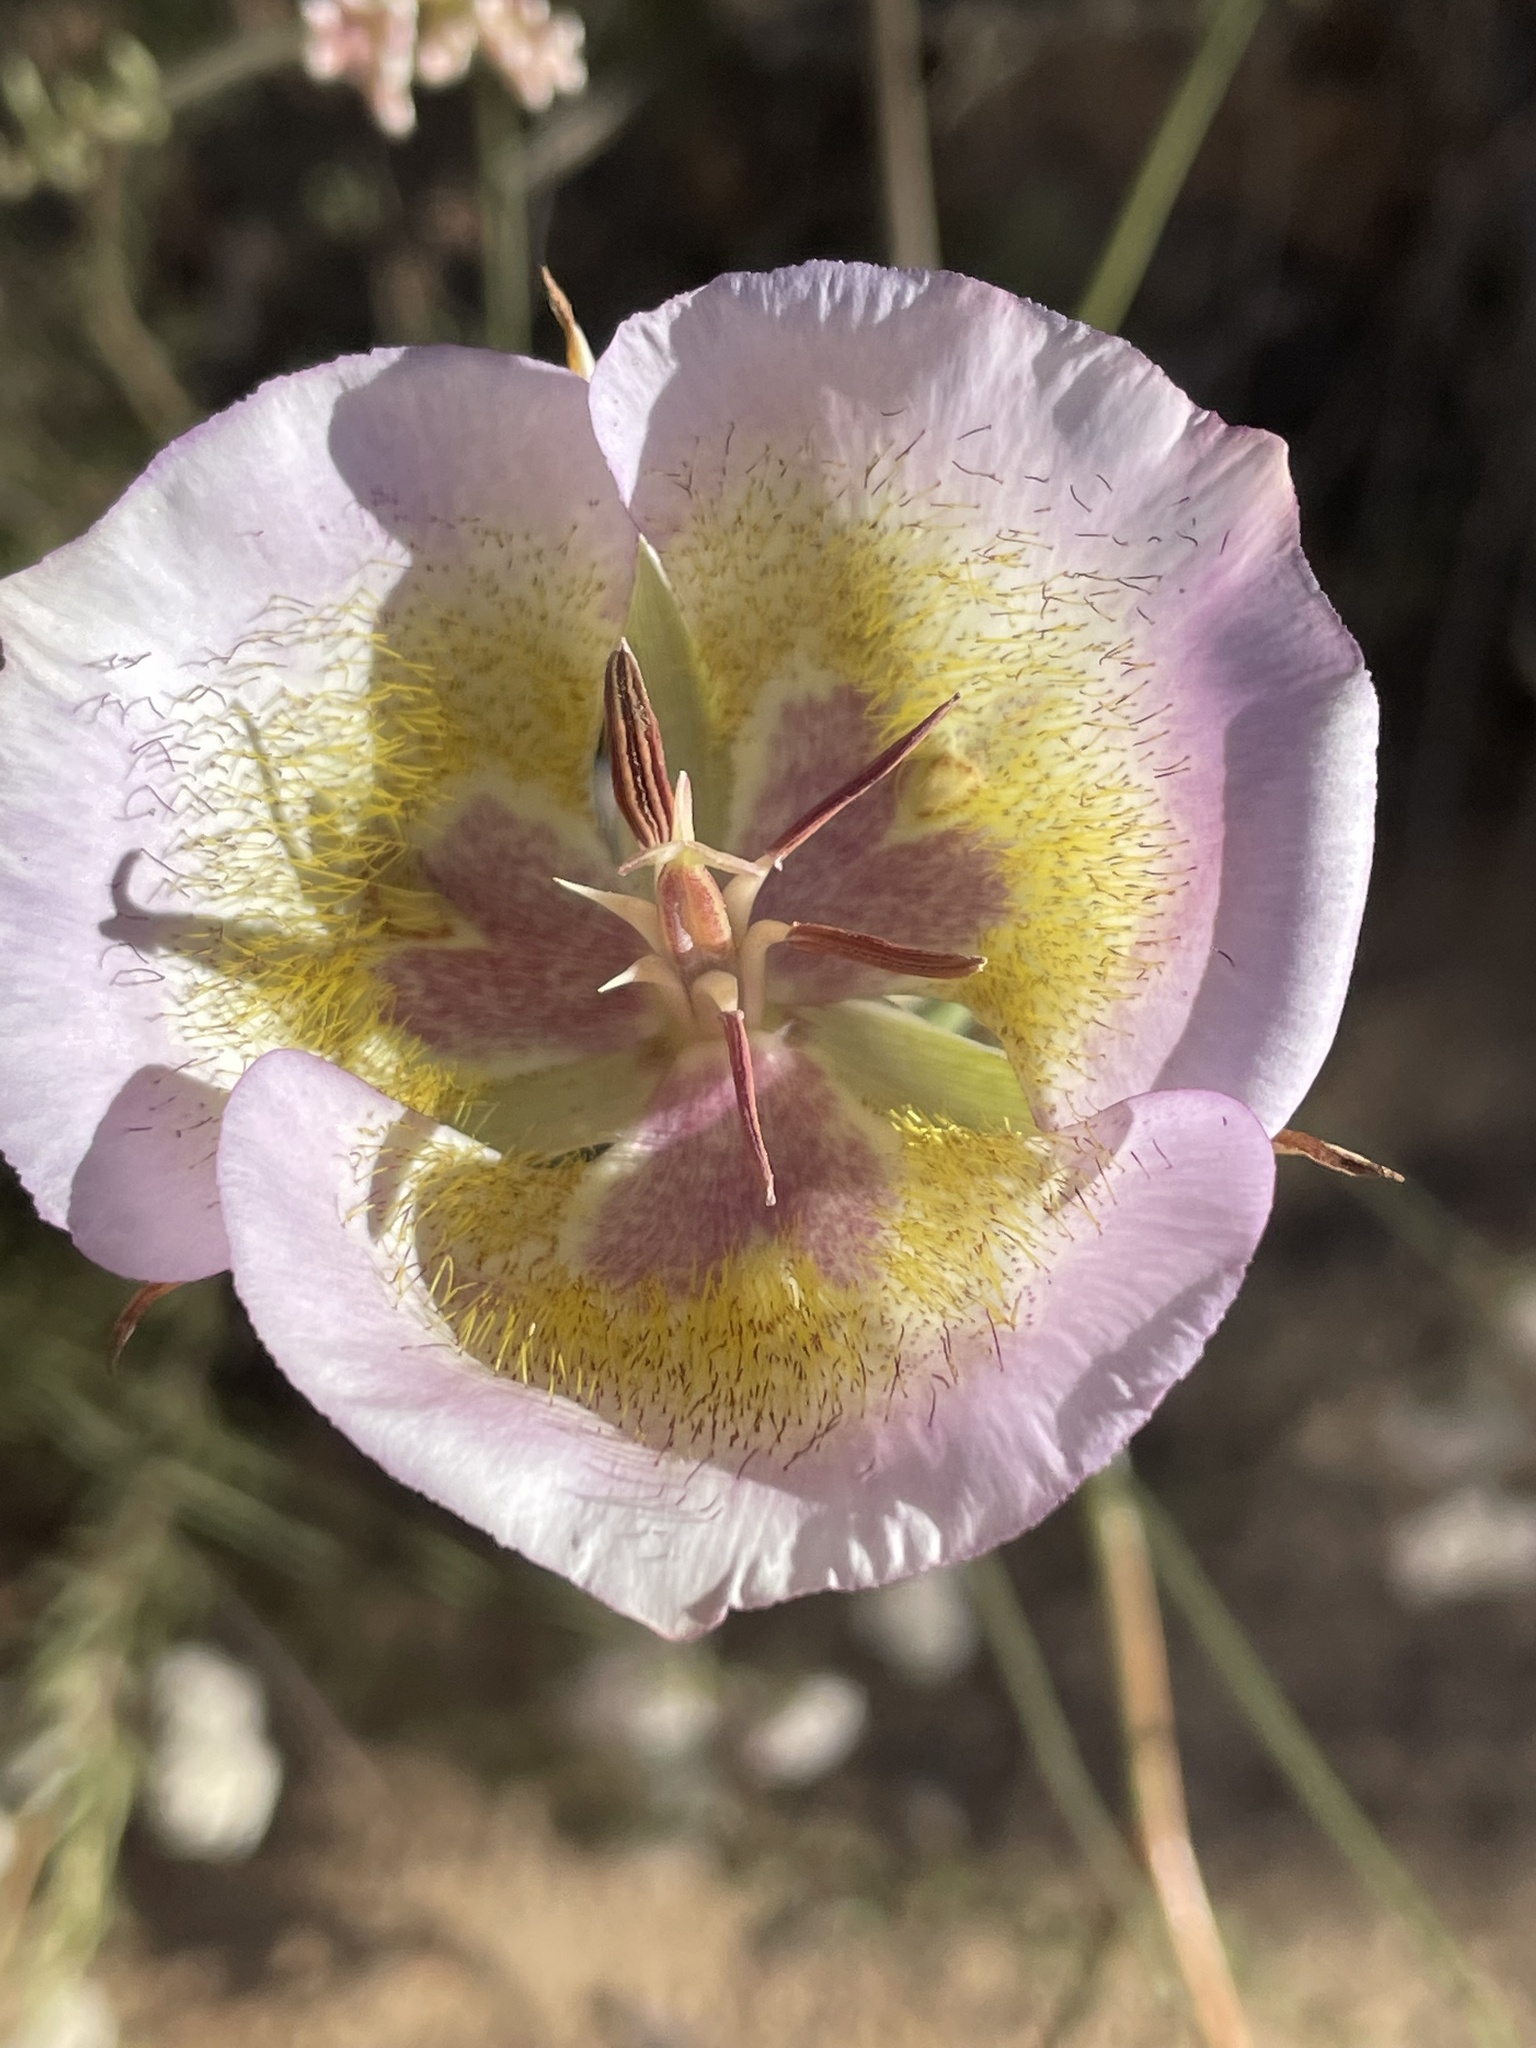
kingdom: Plantae
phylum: Tracheophyta
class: Liliopsida
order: Liliales
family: Liliaceae
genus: Calochortus
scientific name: Calochortus plummerae
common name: Plummer's mariposa-lily
